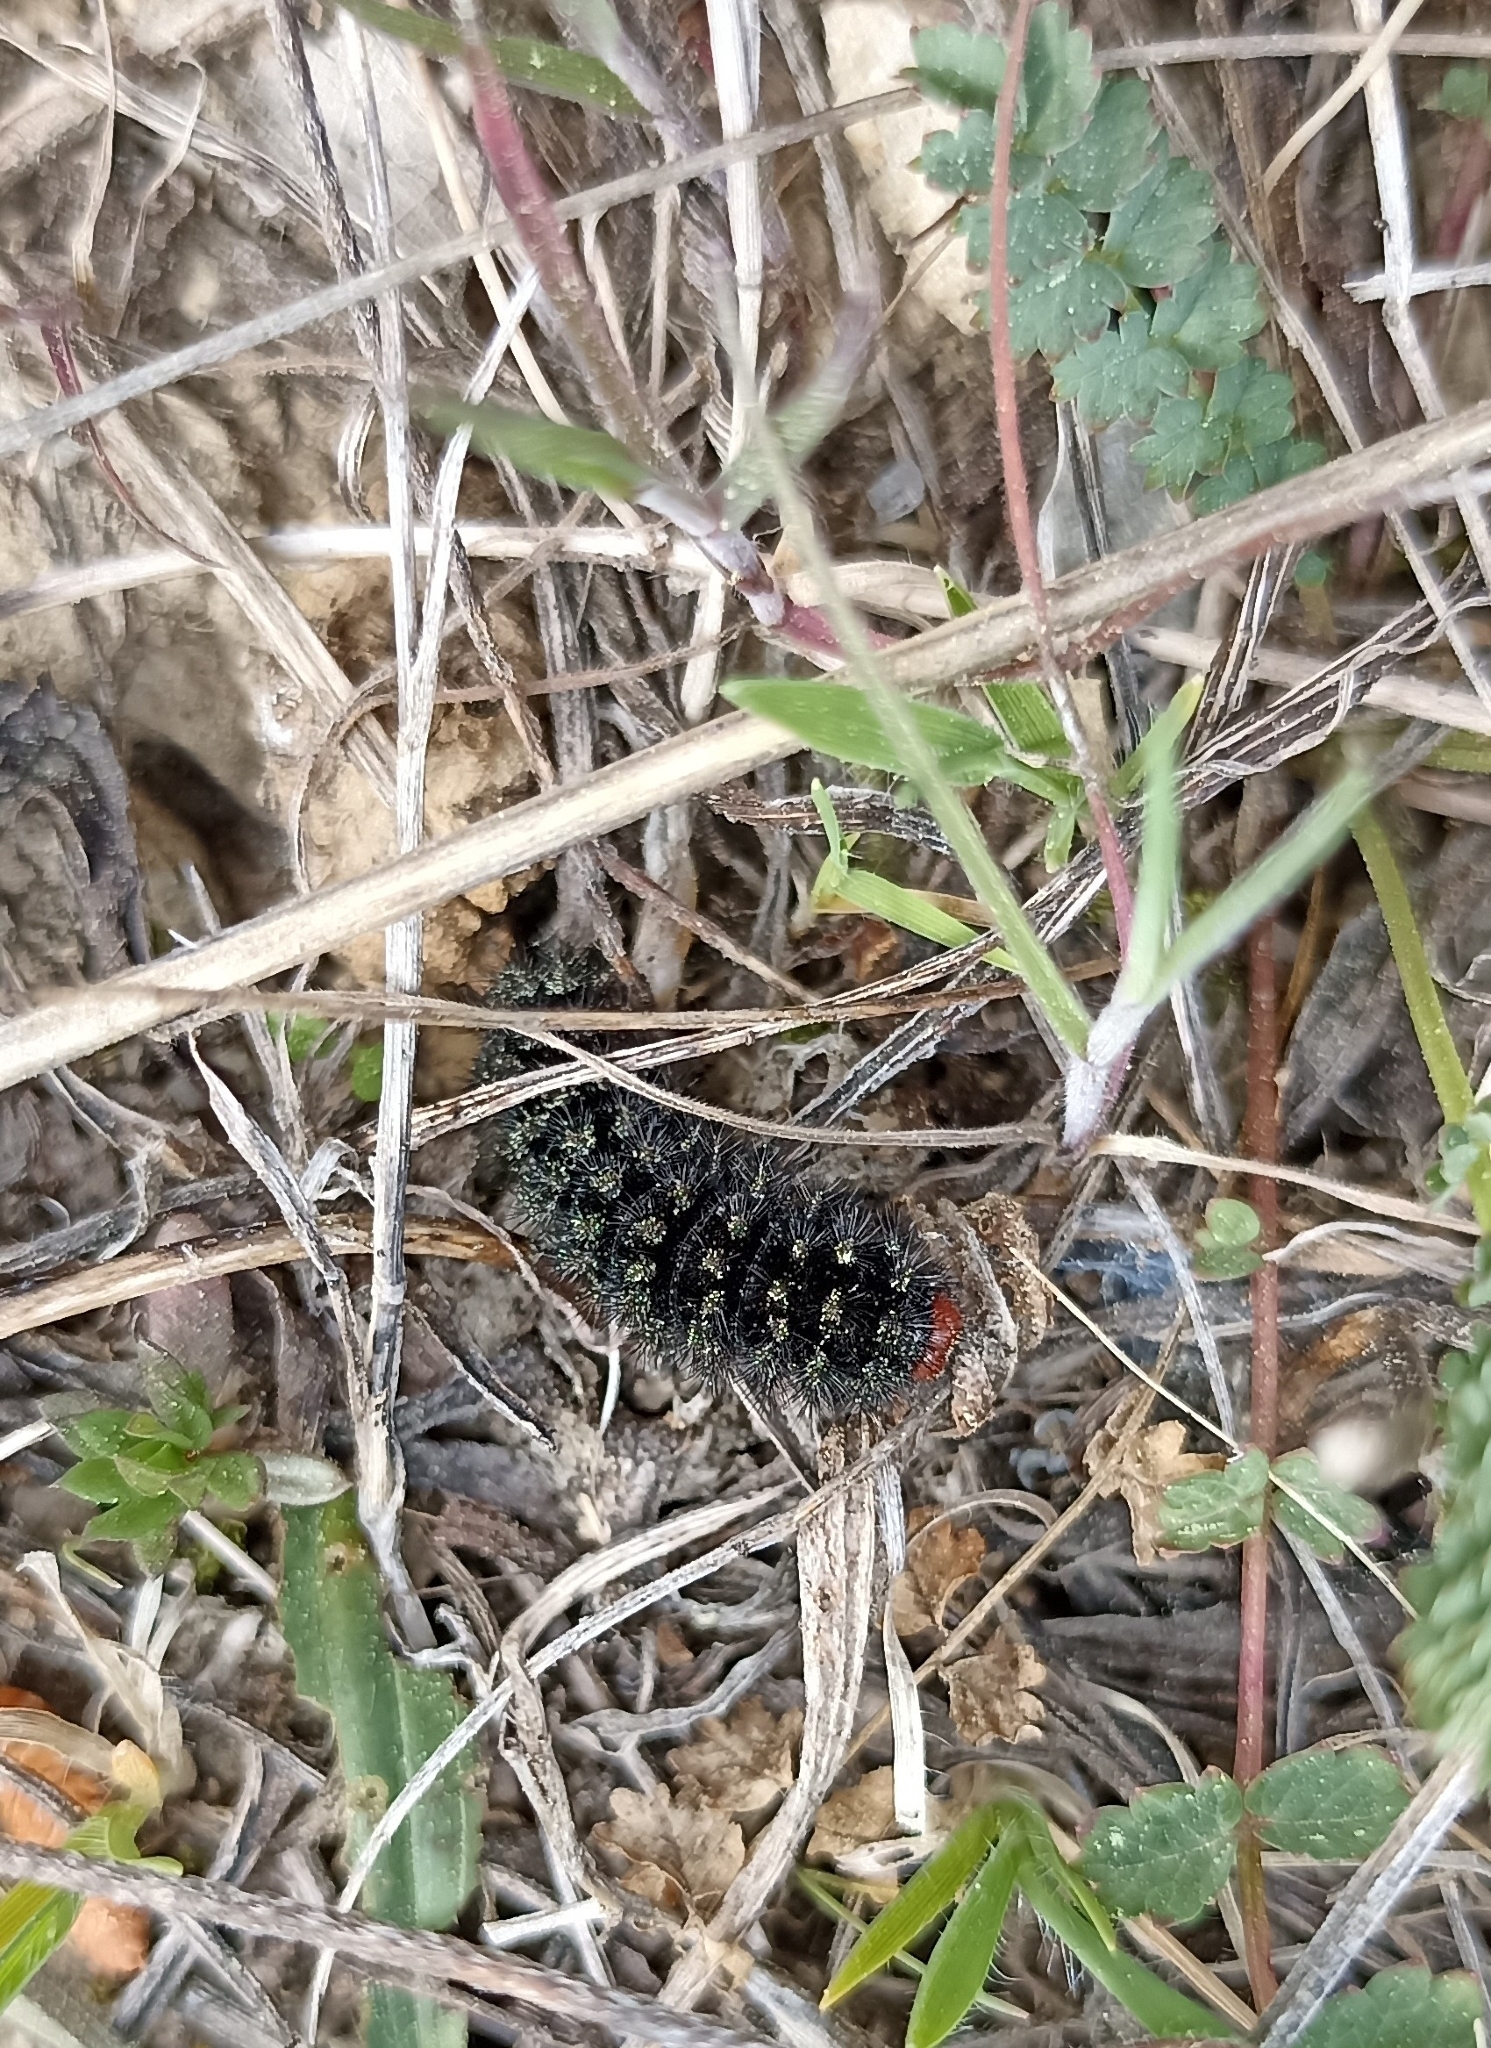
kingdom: Animalia
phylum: Arthropoda
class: Insecta
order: Lepidoptera
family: Nymphalidae
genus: Melitaea
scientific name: Melitaea cinxia
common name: Glanville fritillary
